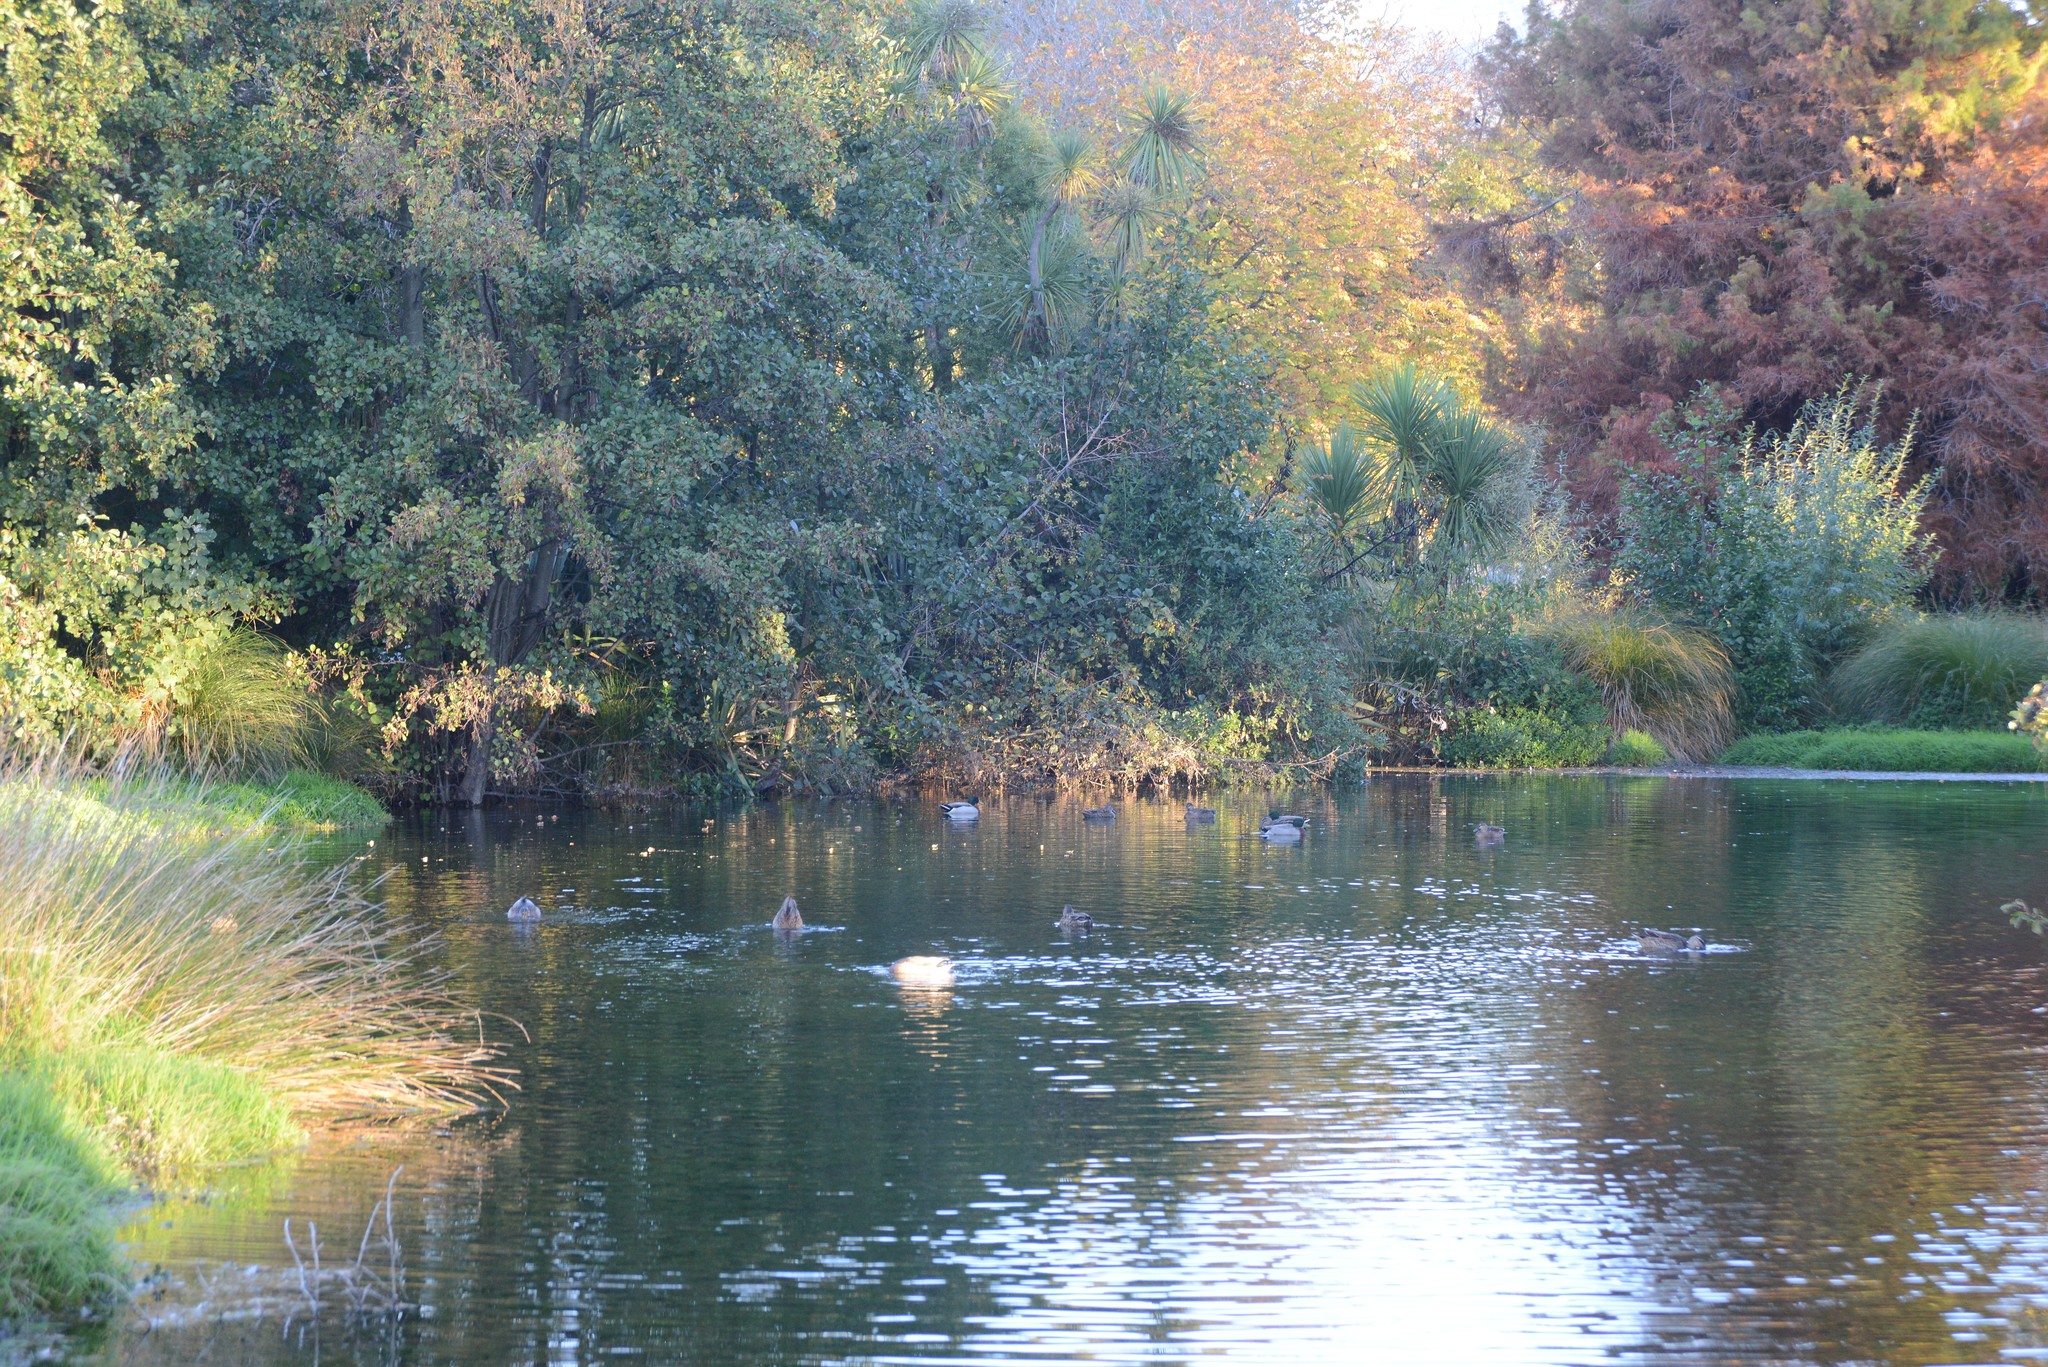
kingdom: Animalia
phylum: Chordata
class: Aves
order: Anseriformes
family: Anatidae
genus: Anas
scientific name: Anas platyrhynchos
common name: Mallard
